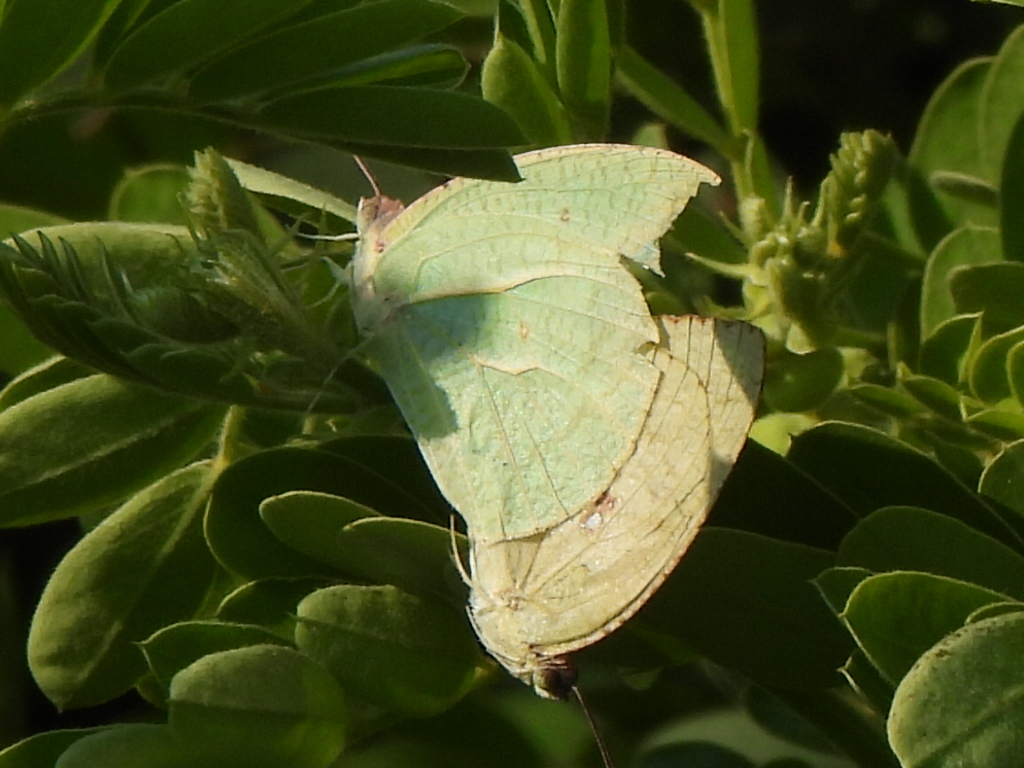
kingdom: Animalia
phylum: Arthropoda
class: Insecta
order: Lepidoptera
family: Pieridae
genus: Catopsilia
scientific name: Catopsilia florella
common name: African migrant
